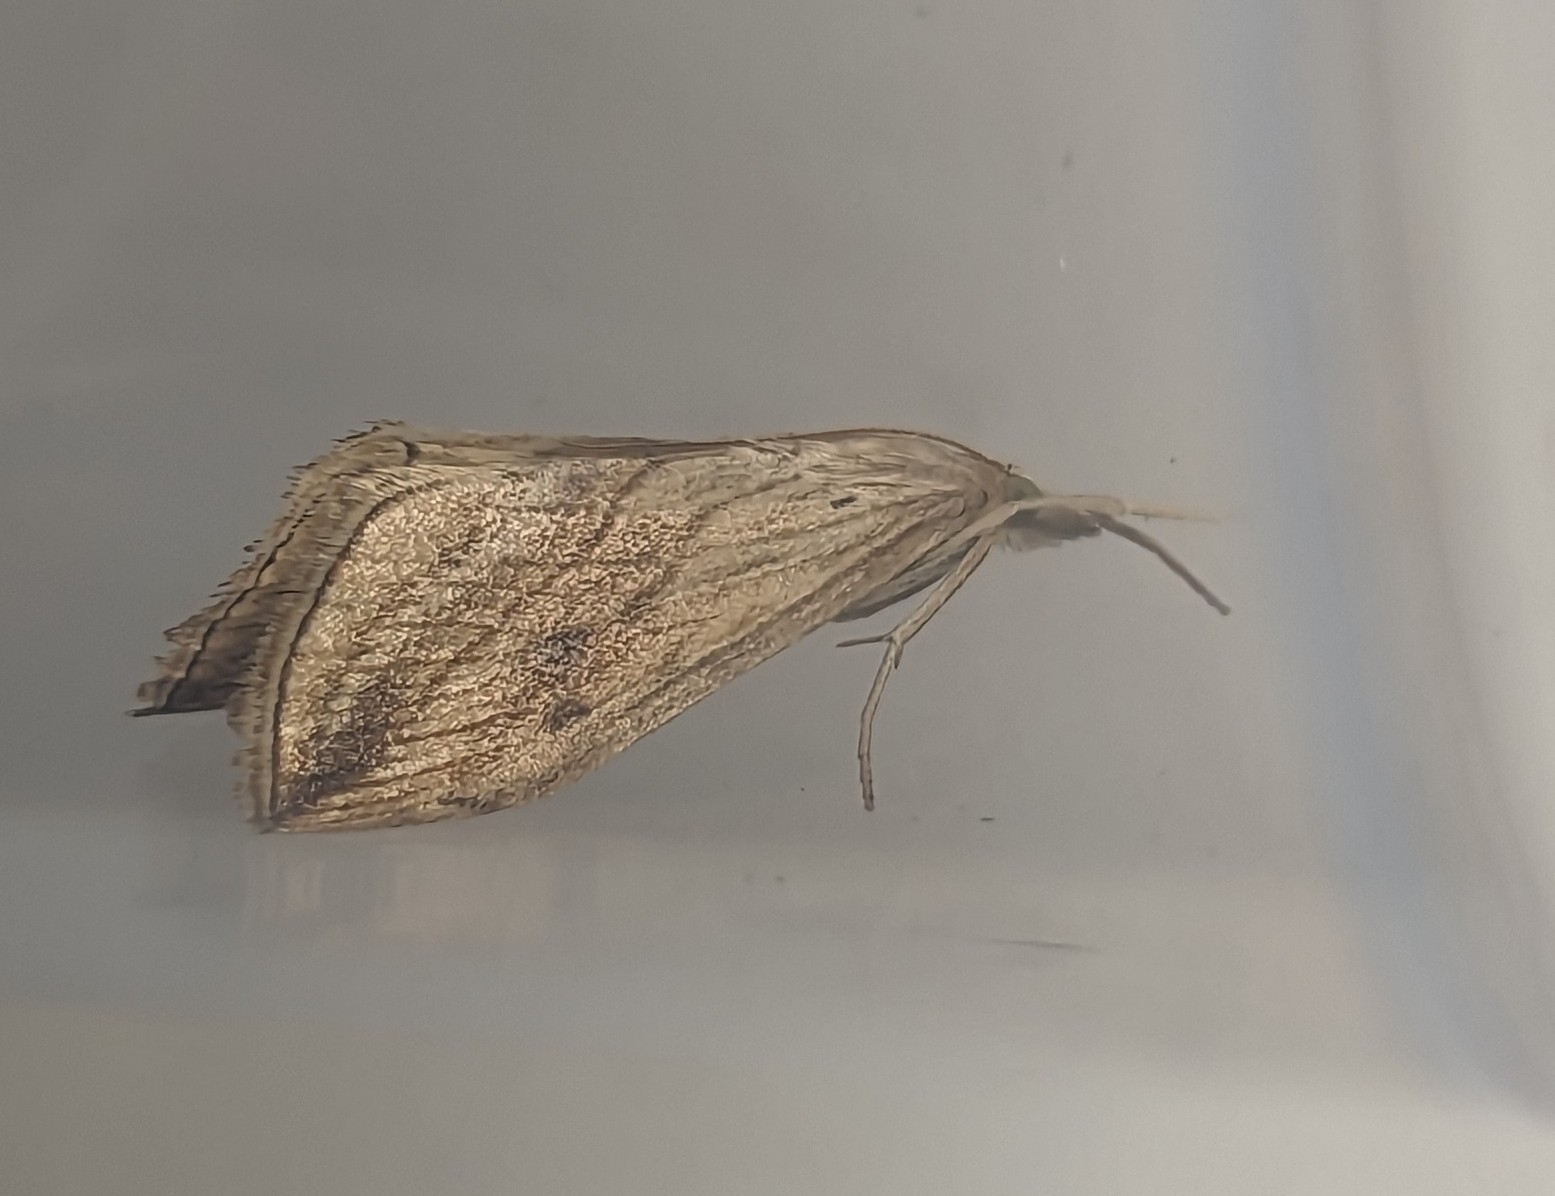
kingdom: Animalia
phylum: Arthropoda
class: Insecta
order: Lepidoptera
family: Crambidae
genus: Evergestis
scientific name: Evergestis forficalis
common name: Garden pebble
